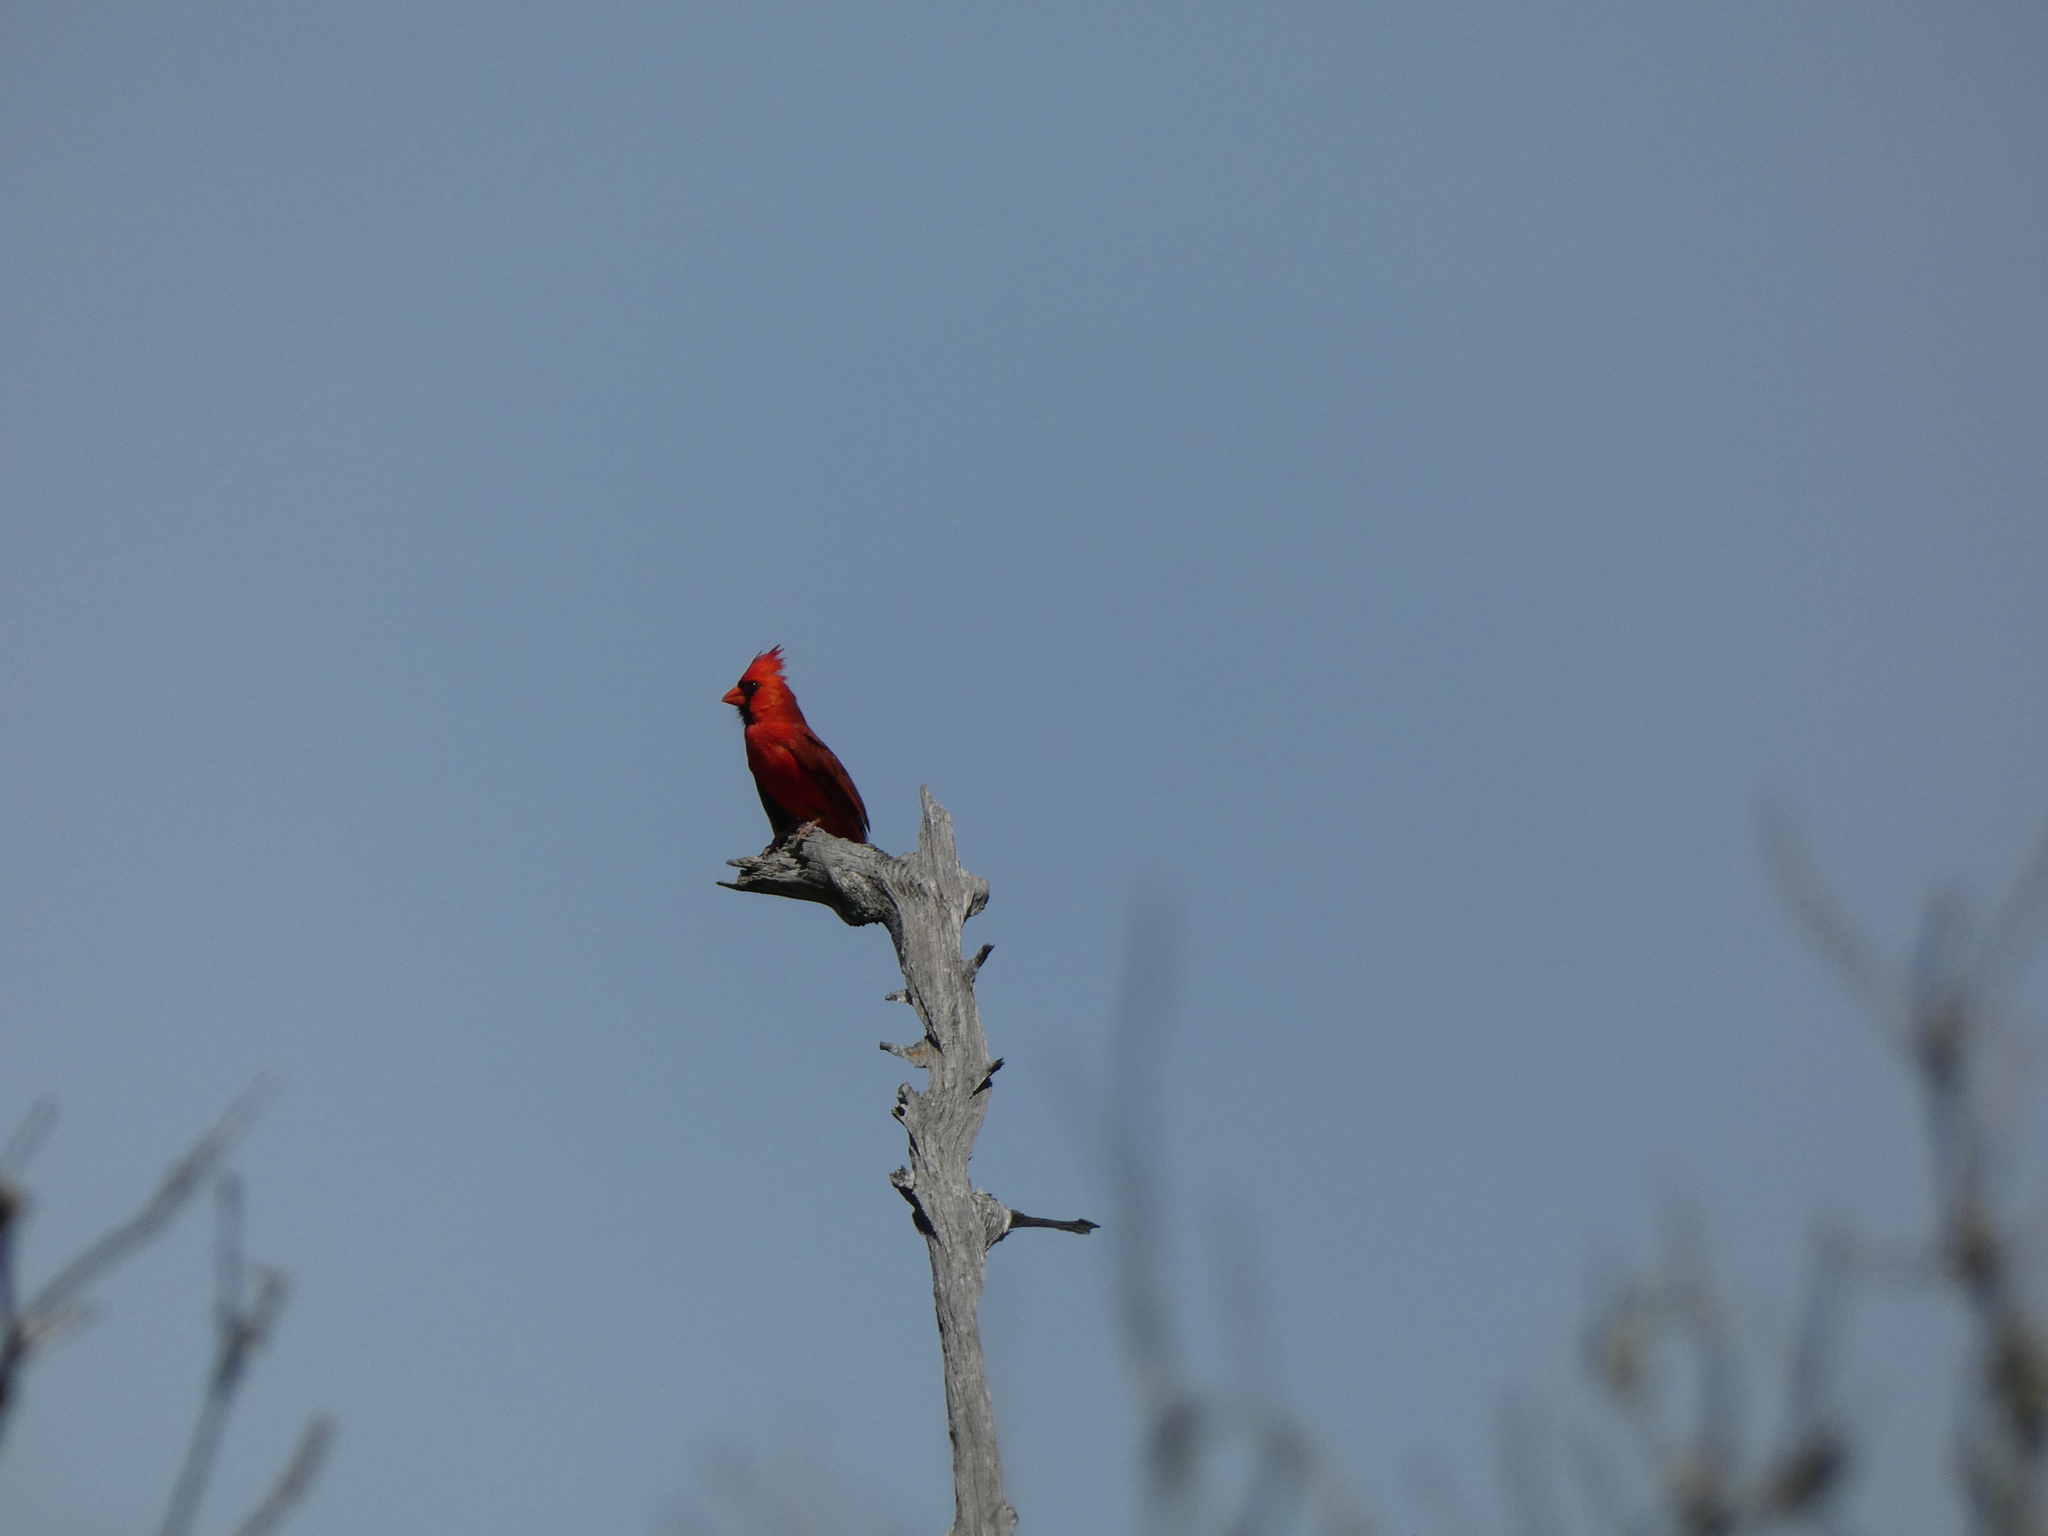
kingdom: Animalia
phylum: Chordata
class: Aves
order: Passeriformes
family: Cardinalidae
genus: Cardinalis
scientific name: Cardinalis cardinalis
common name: Northern cardinal
